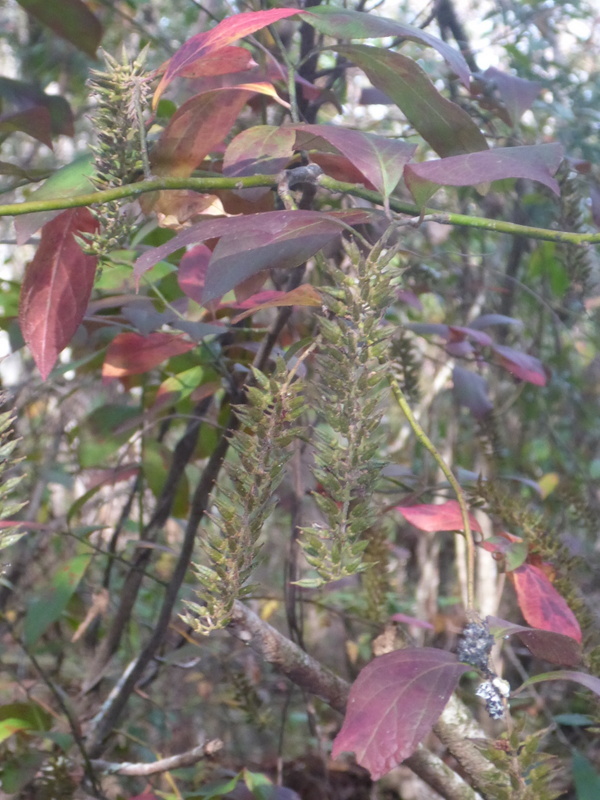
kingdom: Plantae
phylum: Tracheophyta
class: Magnoliopsida
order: Saxifragales
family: Iteaceae
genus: Itea
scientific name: Itea virginica
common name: Sweetspire
